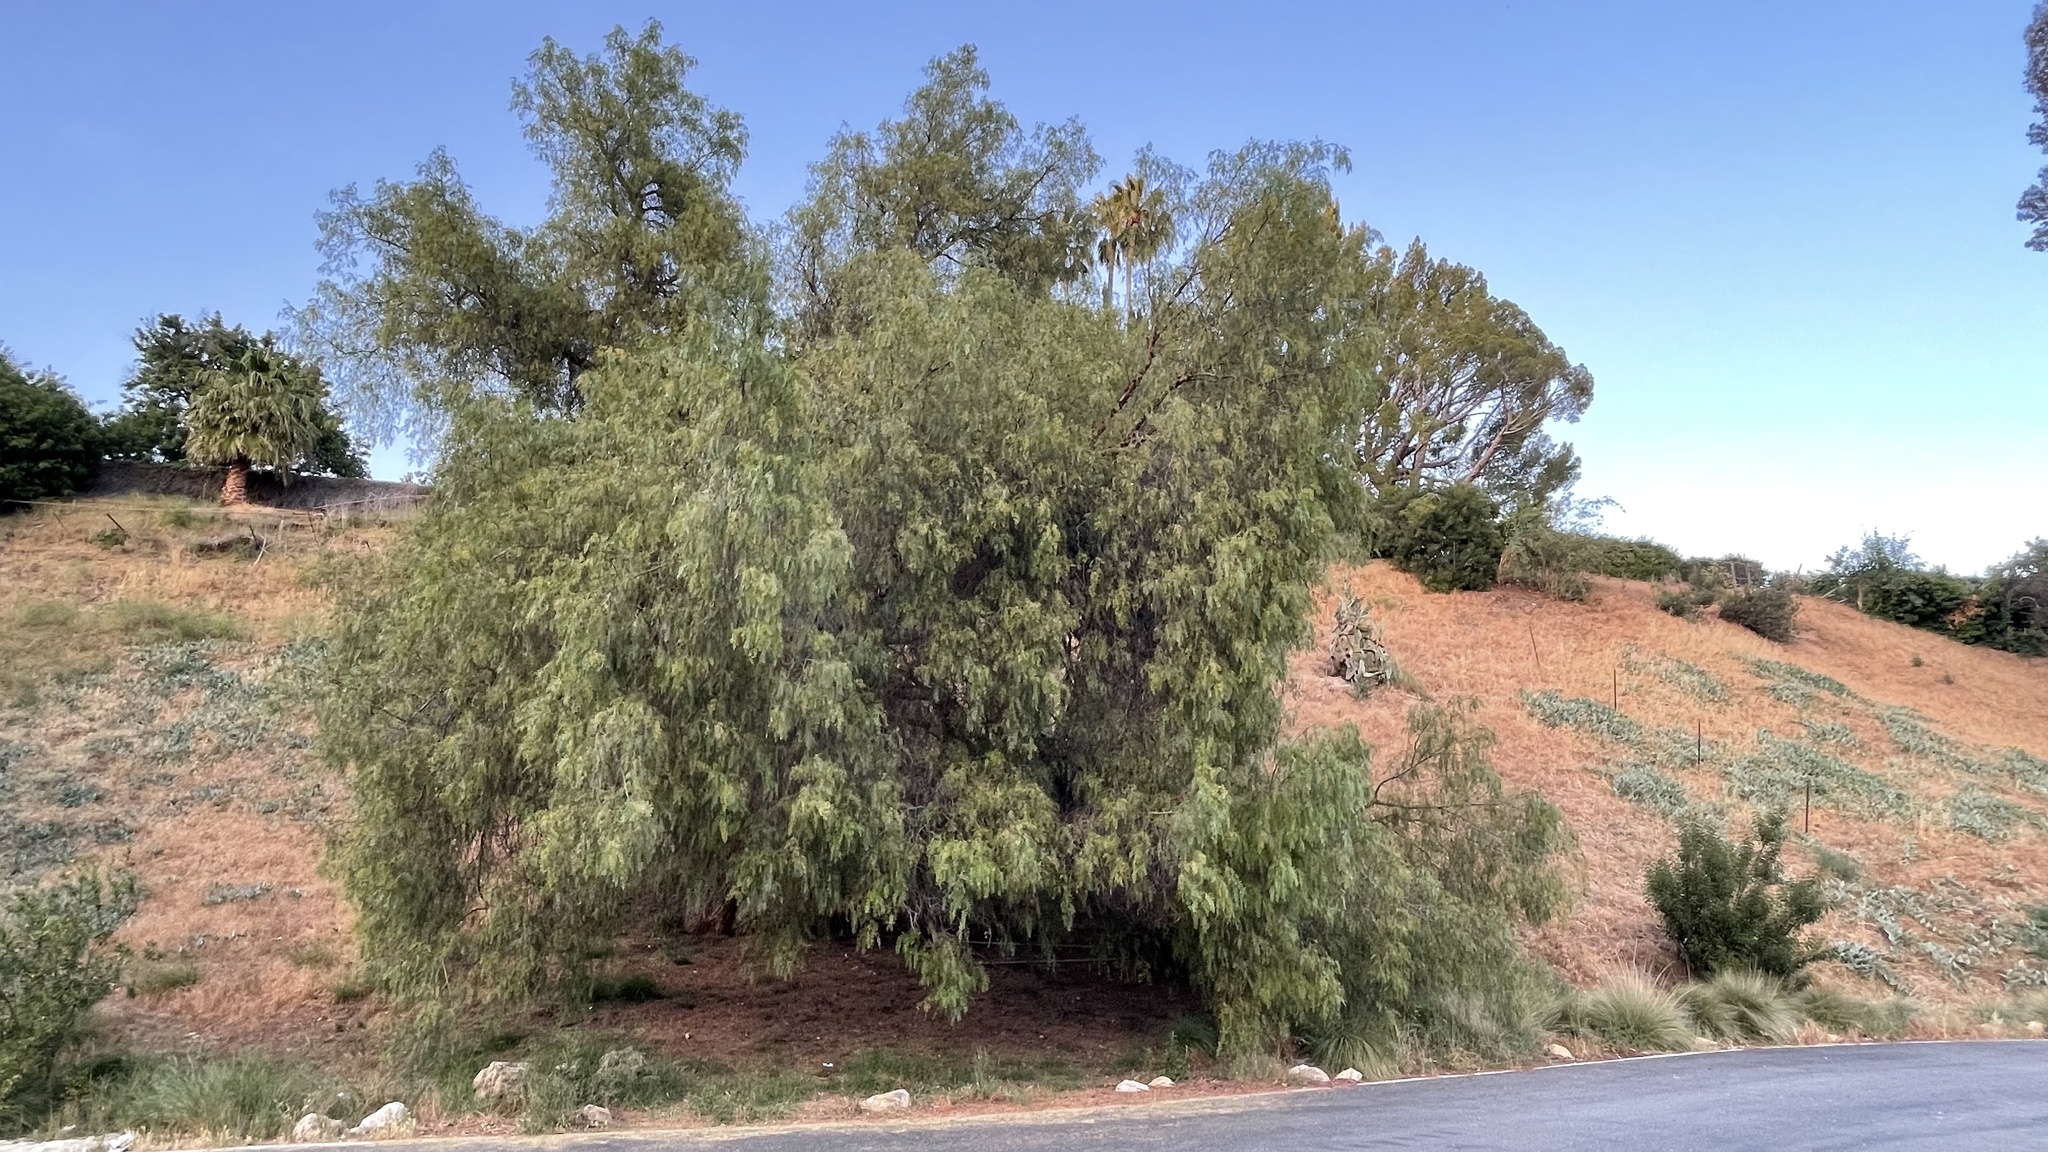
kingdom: Plantae
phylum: Tracheophyta
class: Magnoliopsida
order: Sapindales
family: Anacardiaceae
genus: Schinus
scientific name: Schinus molle
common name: Peruvian peppertree
